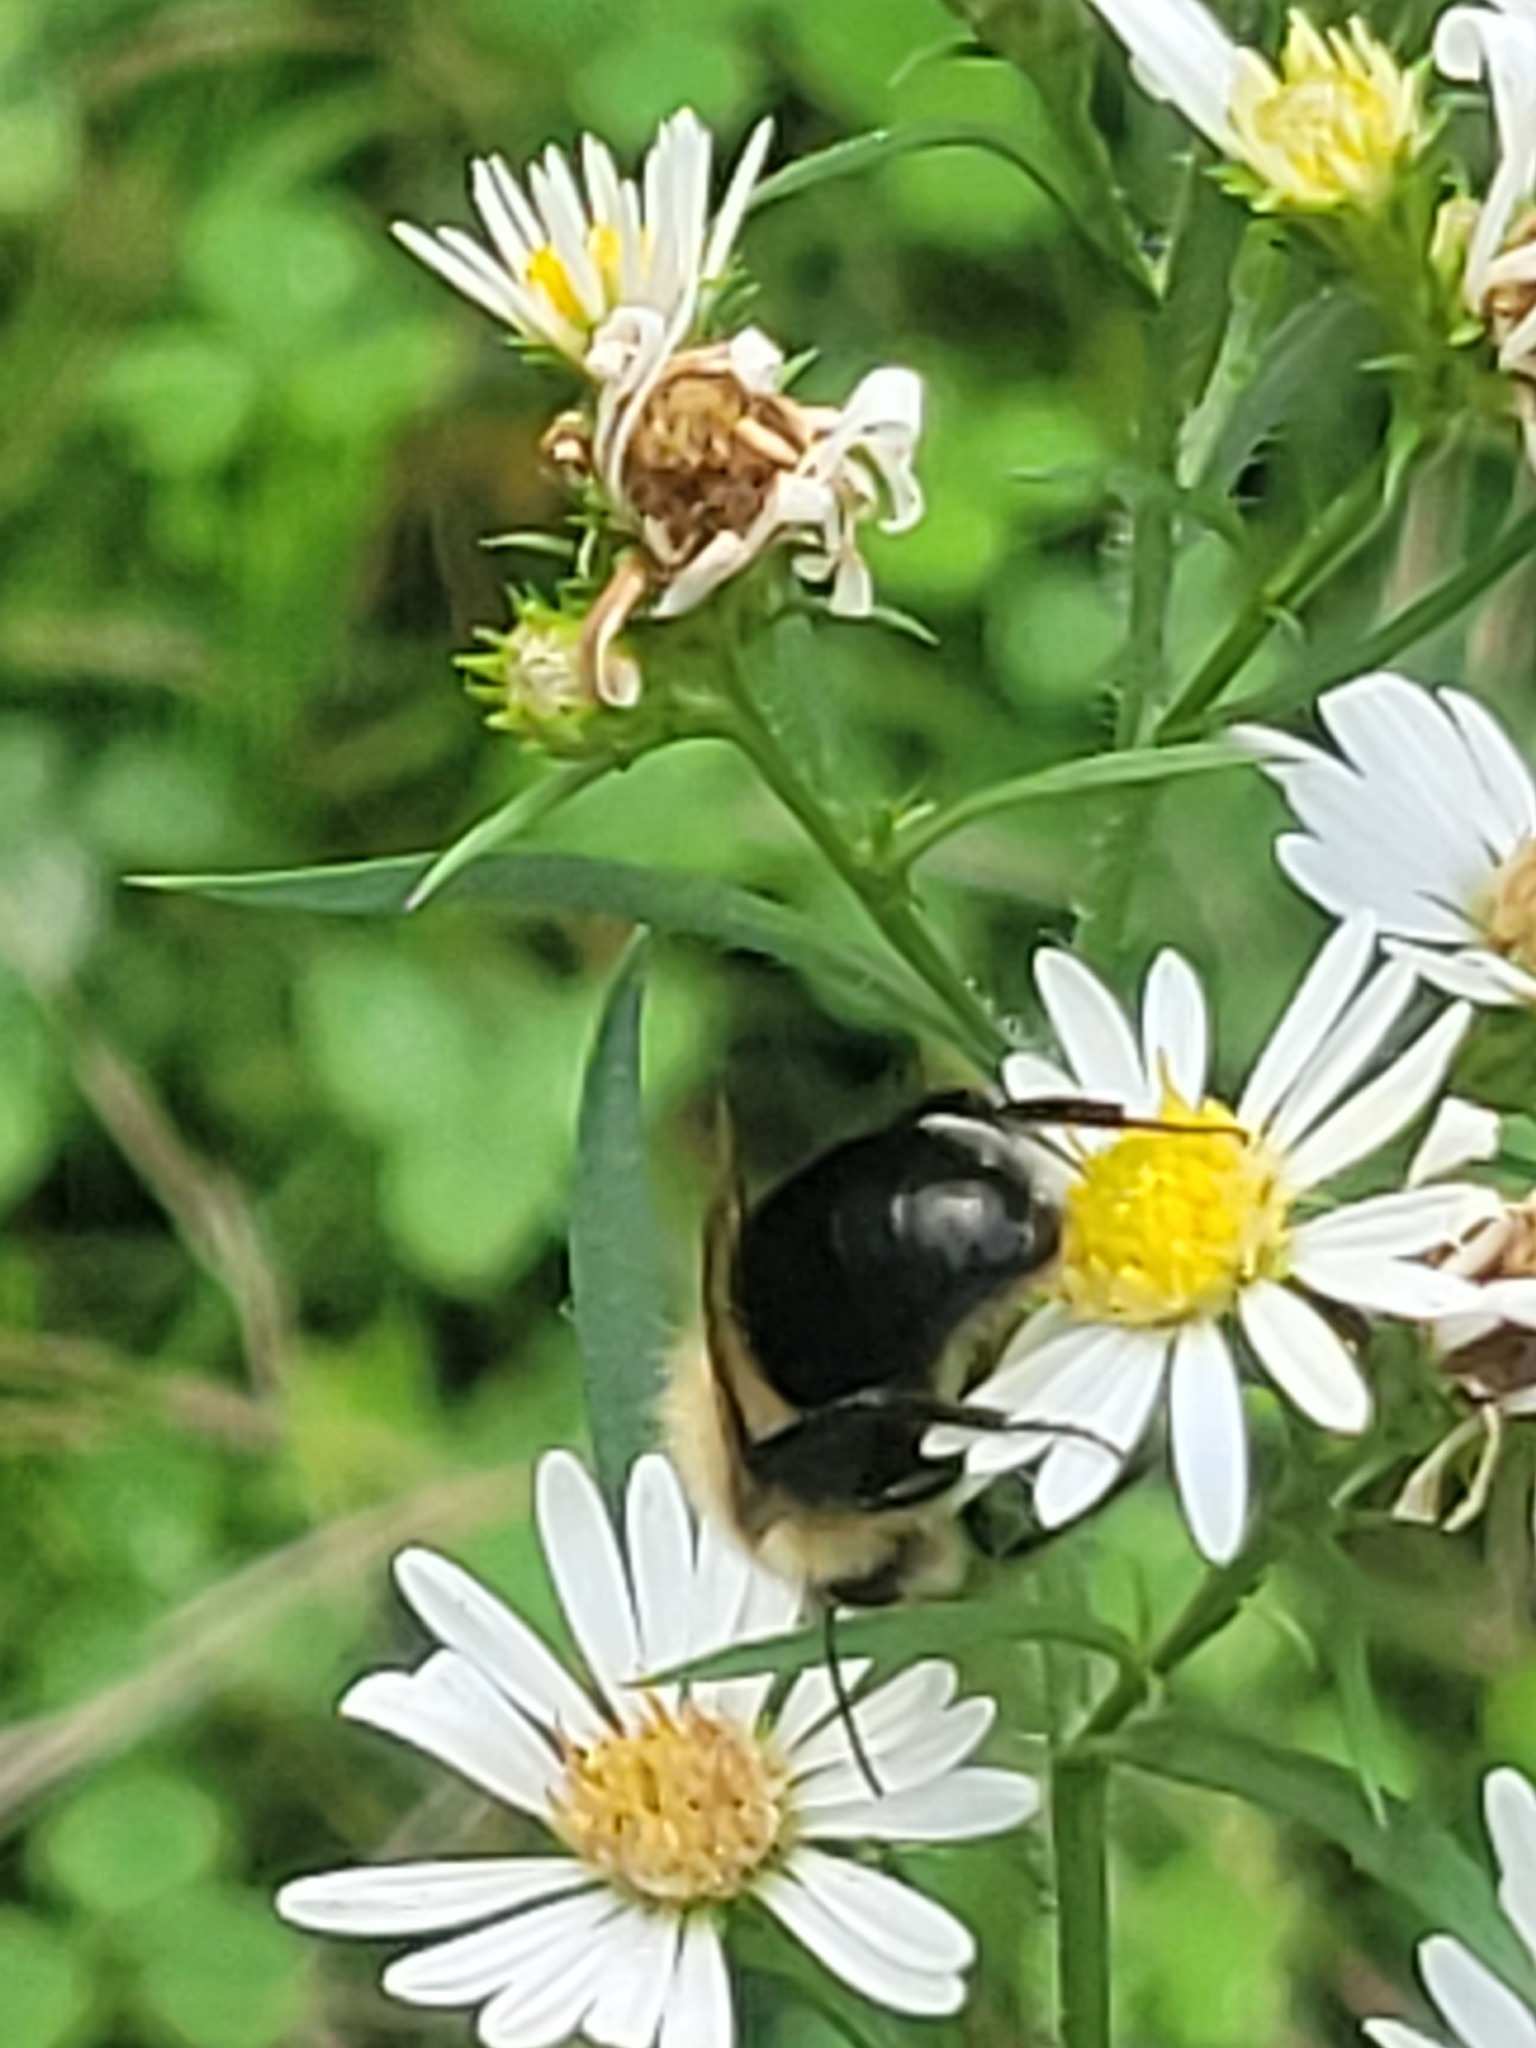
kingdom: Animalia
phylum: Arthropoda
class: Insecta
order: Hymenoptera
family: Apidae
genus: Bombus
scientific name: Bombus impatiens
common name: Common eastern bumble bee
